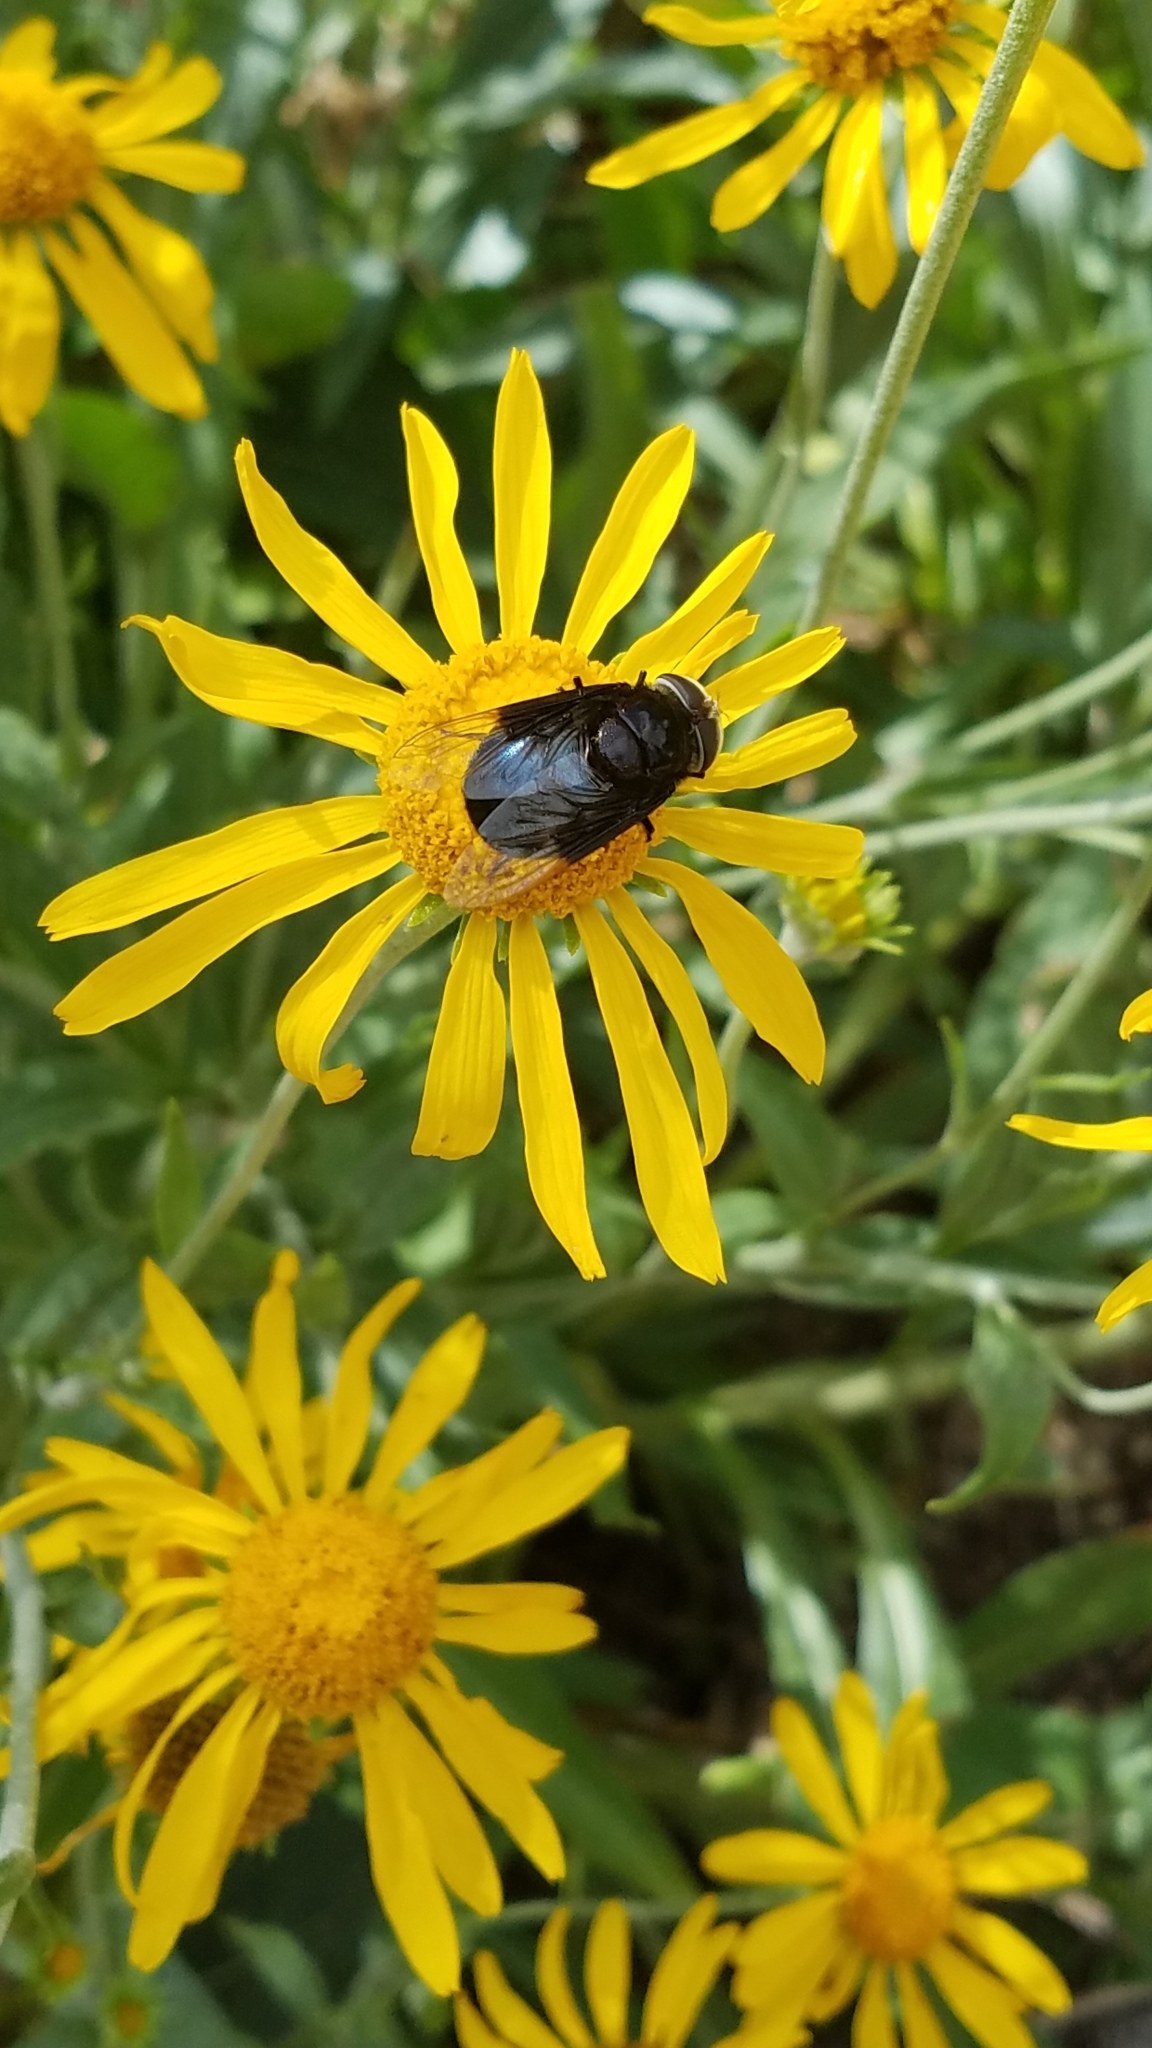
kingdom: Animalia
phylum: Arthropoda
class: Insecta
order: Diptera
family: Syrphidae
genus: Copestylum
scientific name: Copestylum
